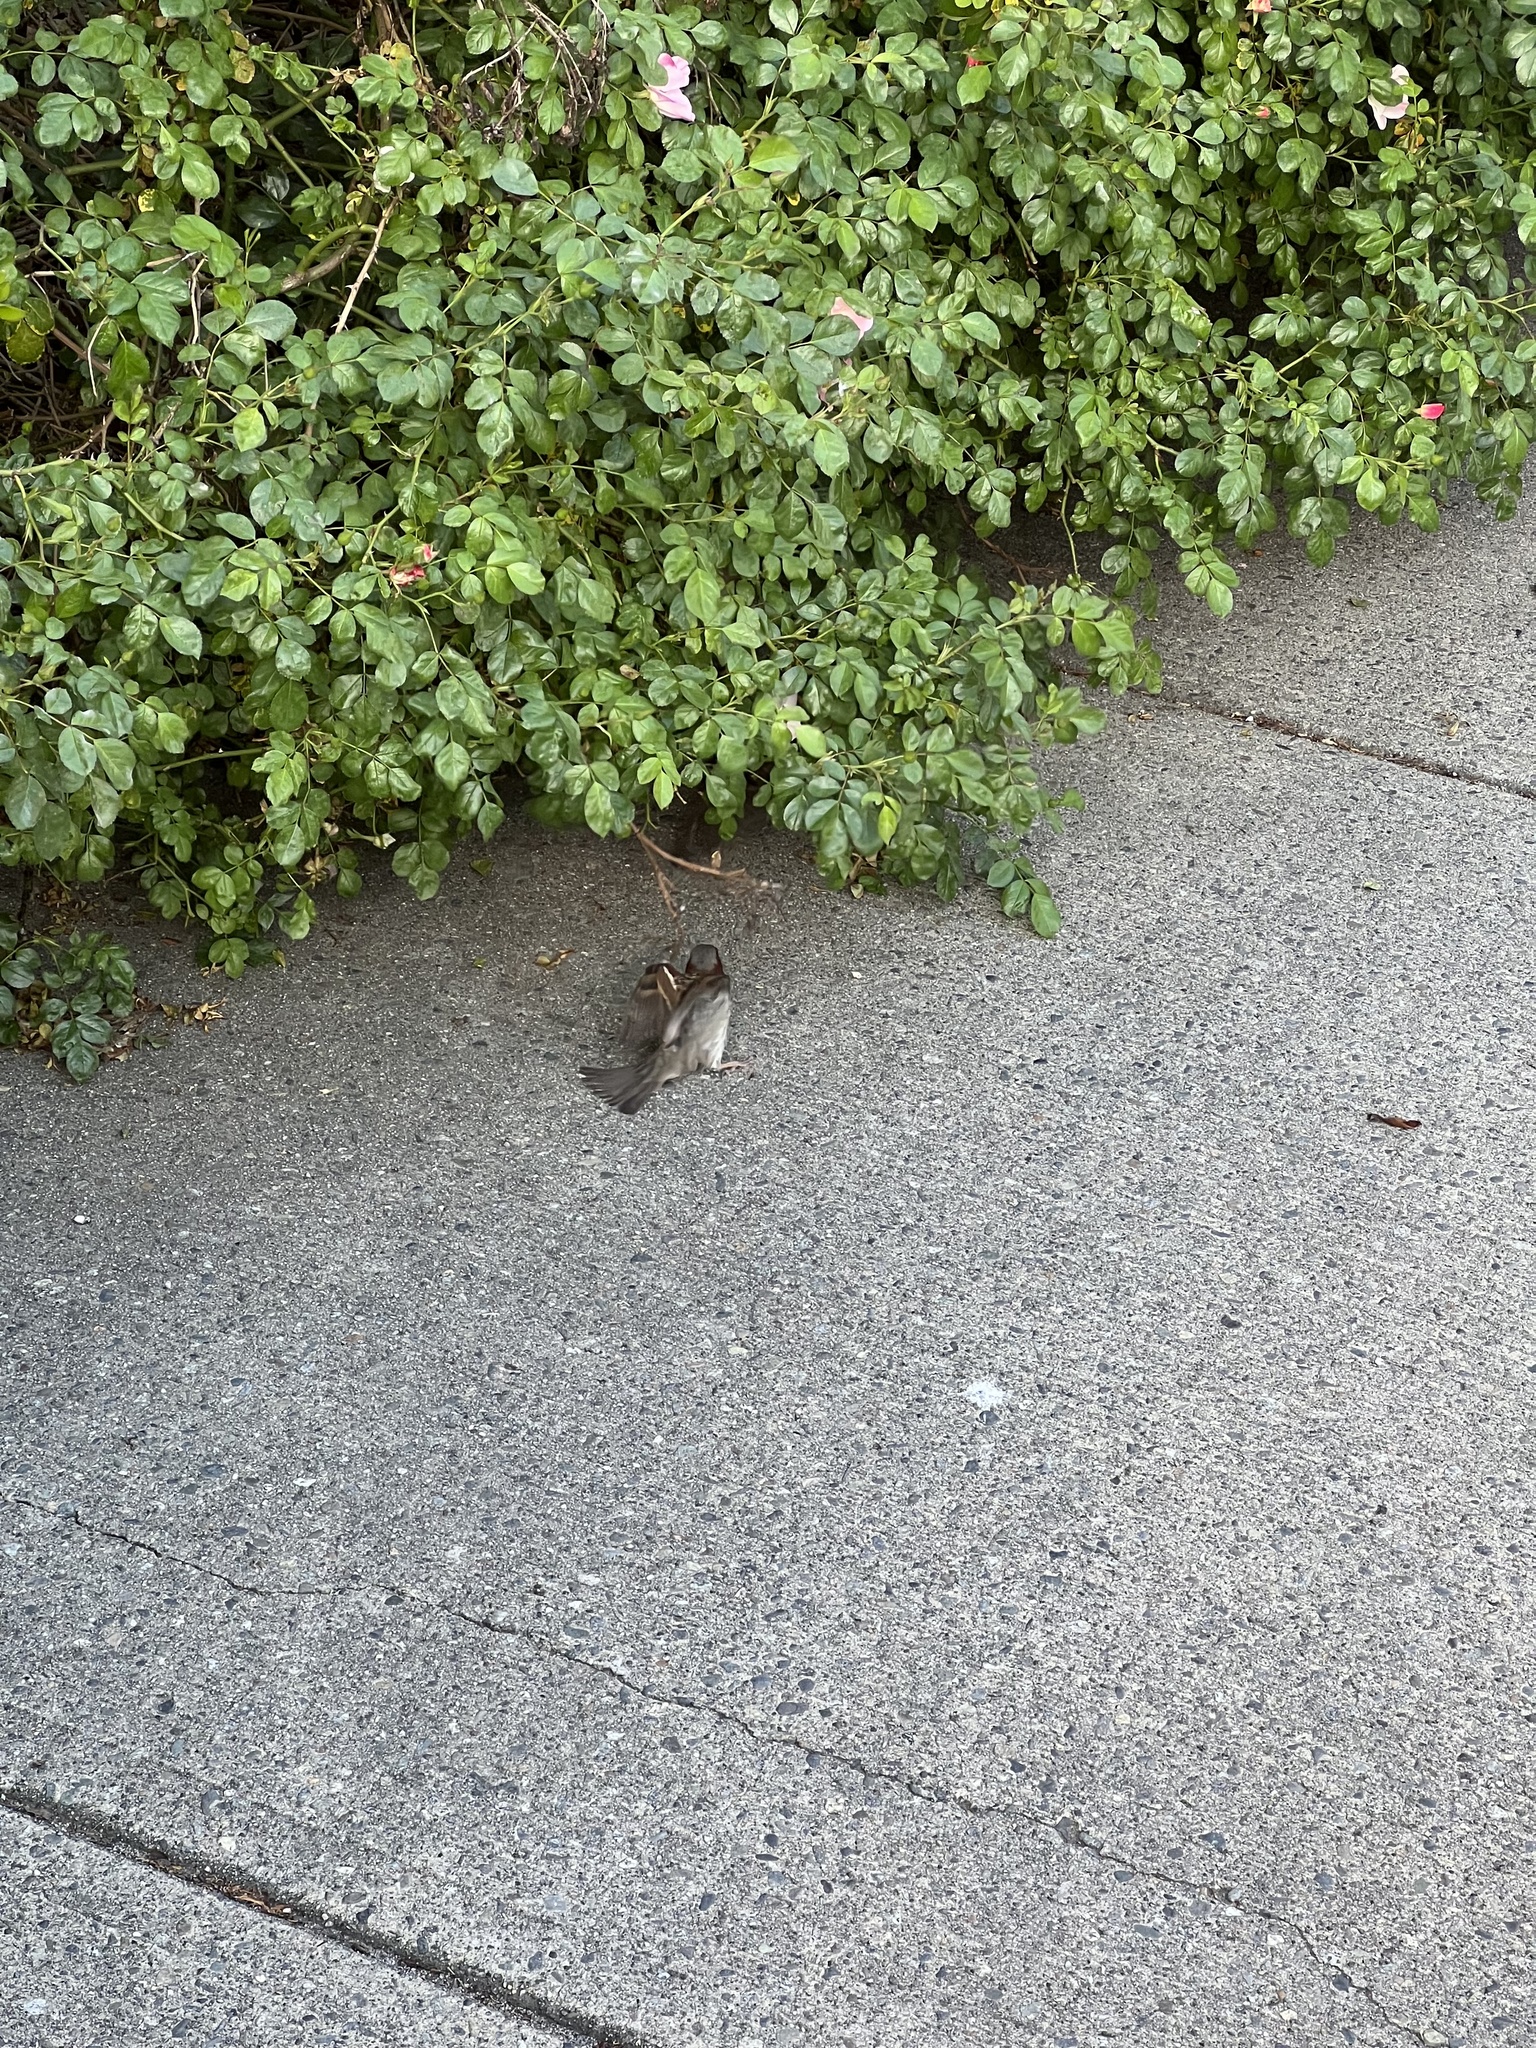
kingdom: Animalia
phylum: Chordata
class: Aves
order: Passeriformes
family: Passeridae
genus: Passer
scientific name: Passer domesticus
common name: House sparrow
